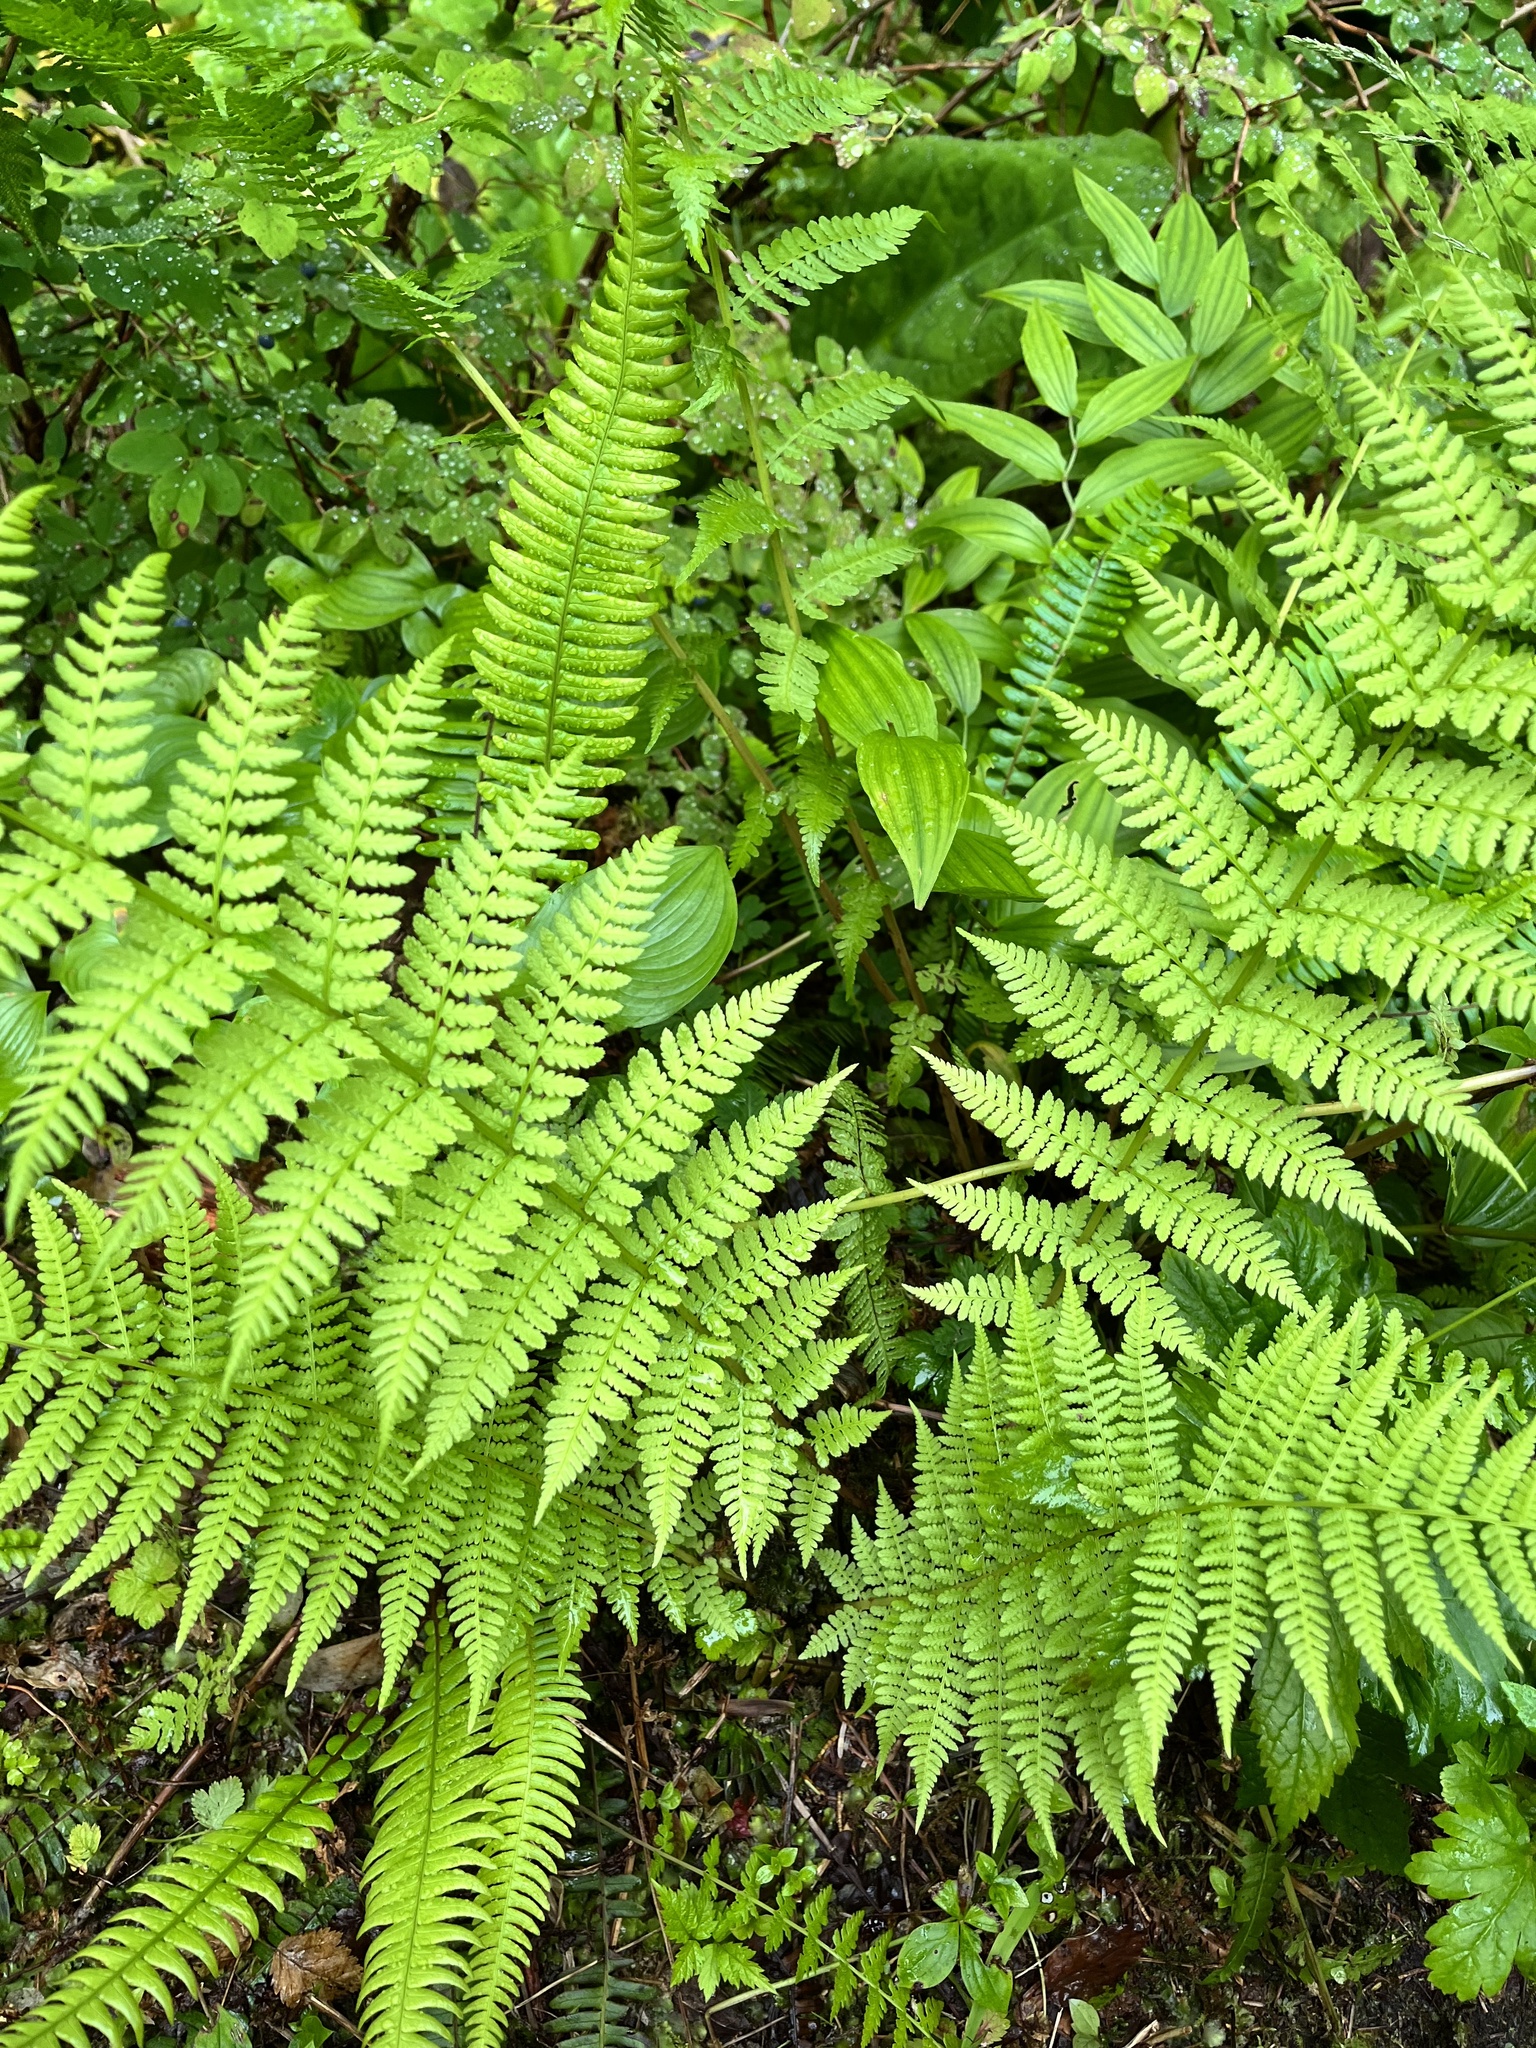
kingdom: Plantae
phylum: Tracheophyta
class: Polypodiopsida
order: Polypodiales
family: Athyriaceae
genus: Athyrium
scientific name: Athyrium filix-femina
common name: Lady fern
